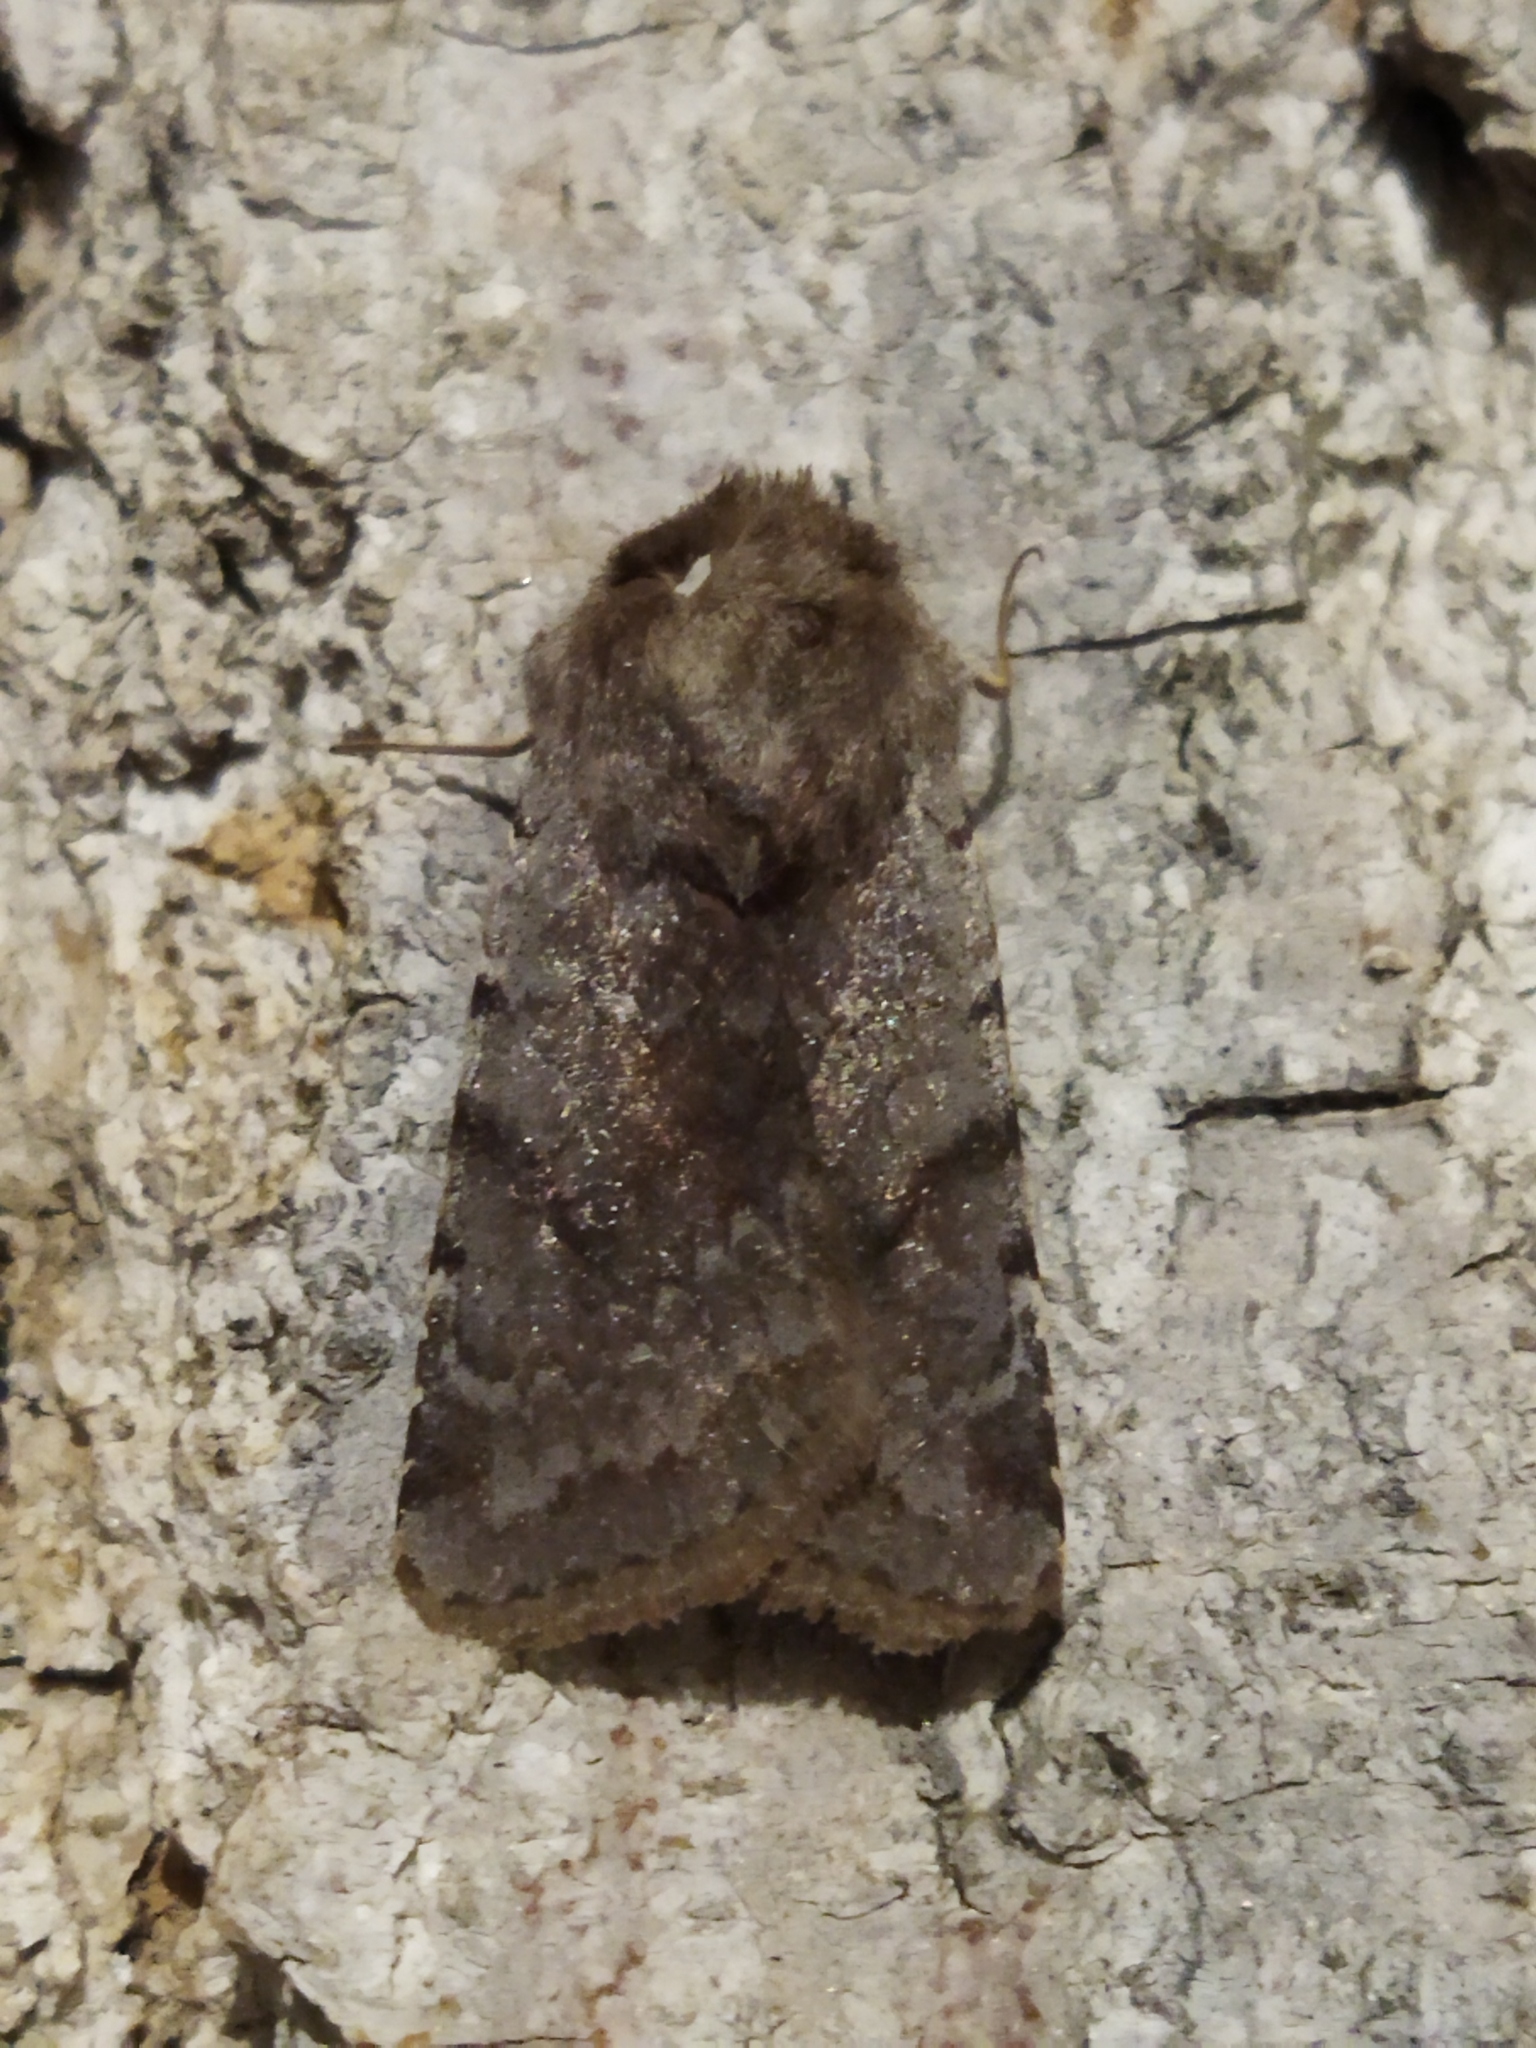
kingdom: Animalia
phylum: Arthropoda
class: Insecta
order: Lepidoptera
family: Noctuidae
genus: Cerastis
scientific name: Cerastis rubricosa
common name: Red chestnut
